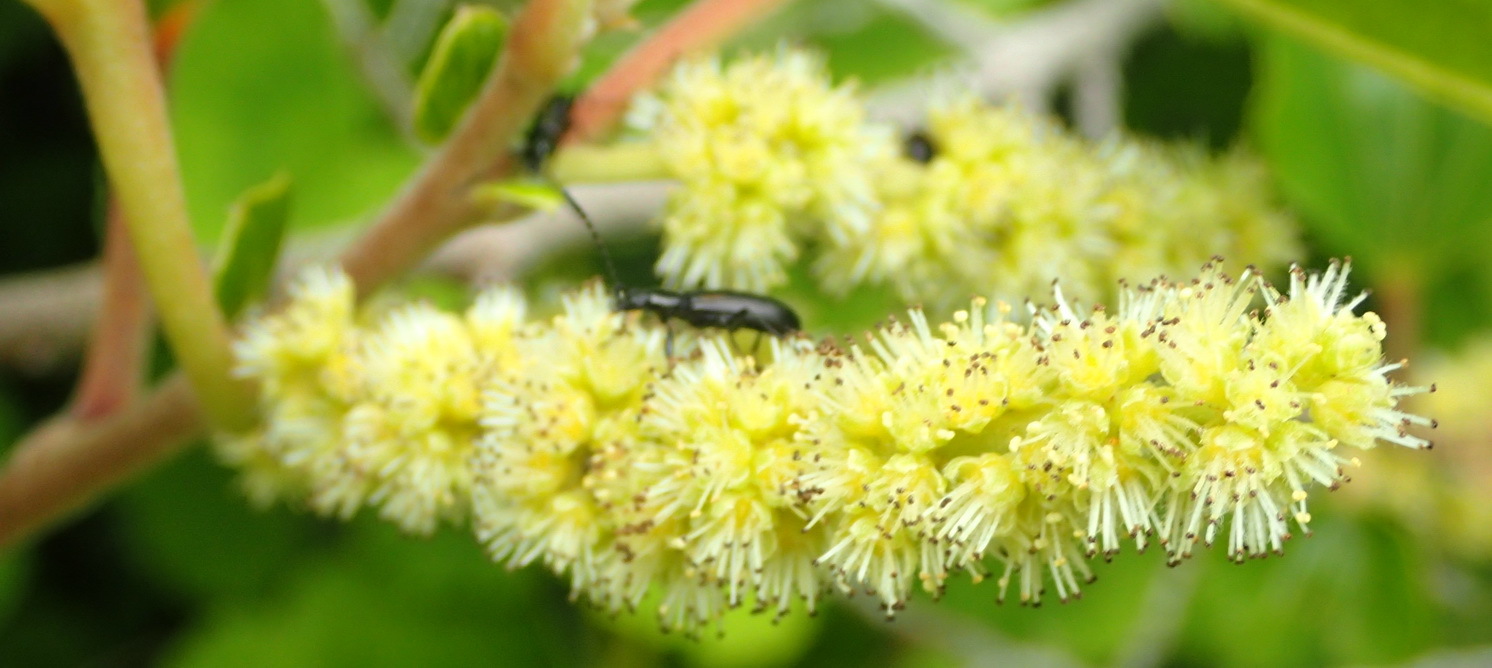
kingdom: Plantae
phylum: Tracheophyta
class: Magnoliopsida
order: Malpighiales
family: Salicaceae
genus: Trimeria
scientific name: Trimeria grandifolia
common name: Wild mulberry
